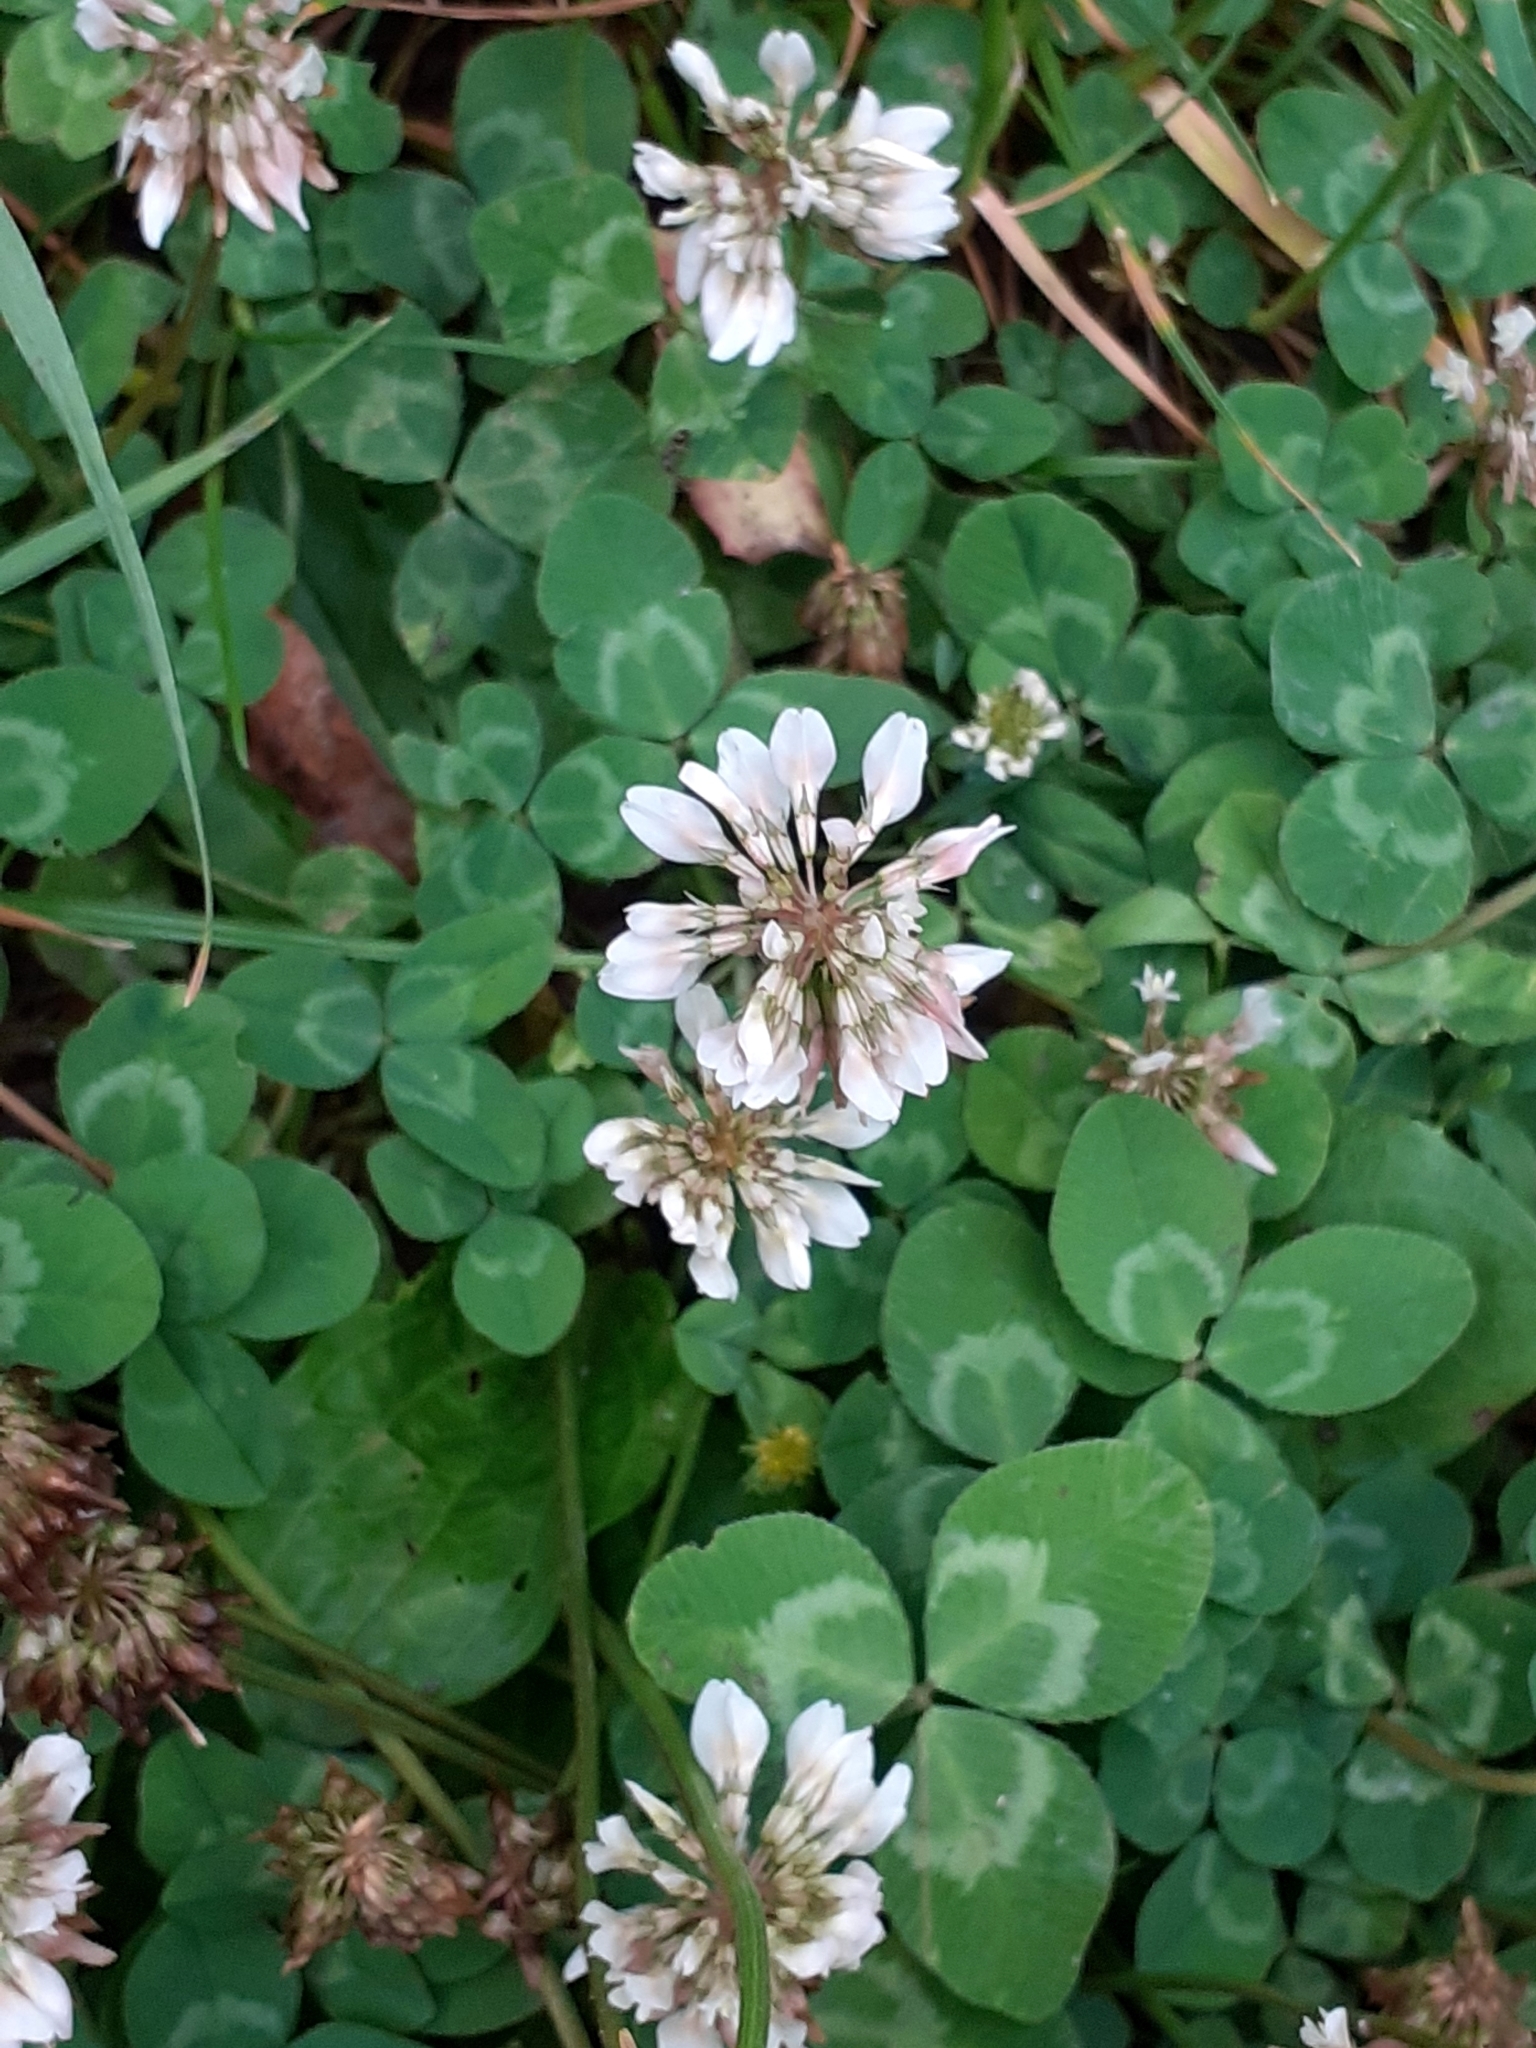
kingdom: Plantae
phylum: Tracheophyta
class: Magnoliopsida
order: Fabales
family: Fabaceae
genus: Trifolium
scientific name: Trifolium repens
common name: White clover
